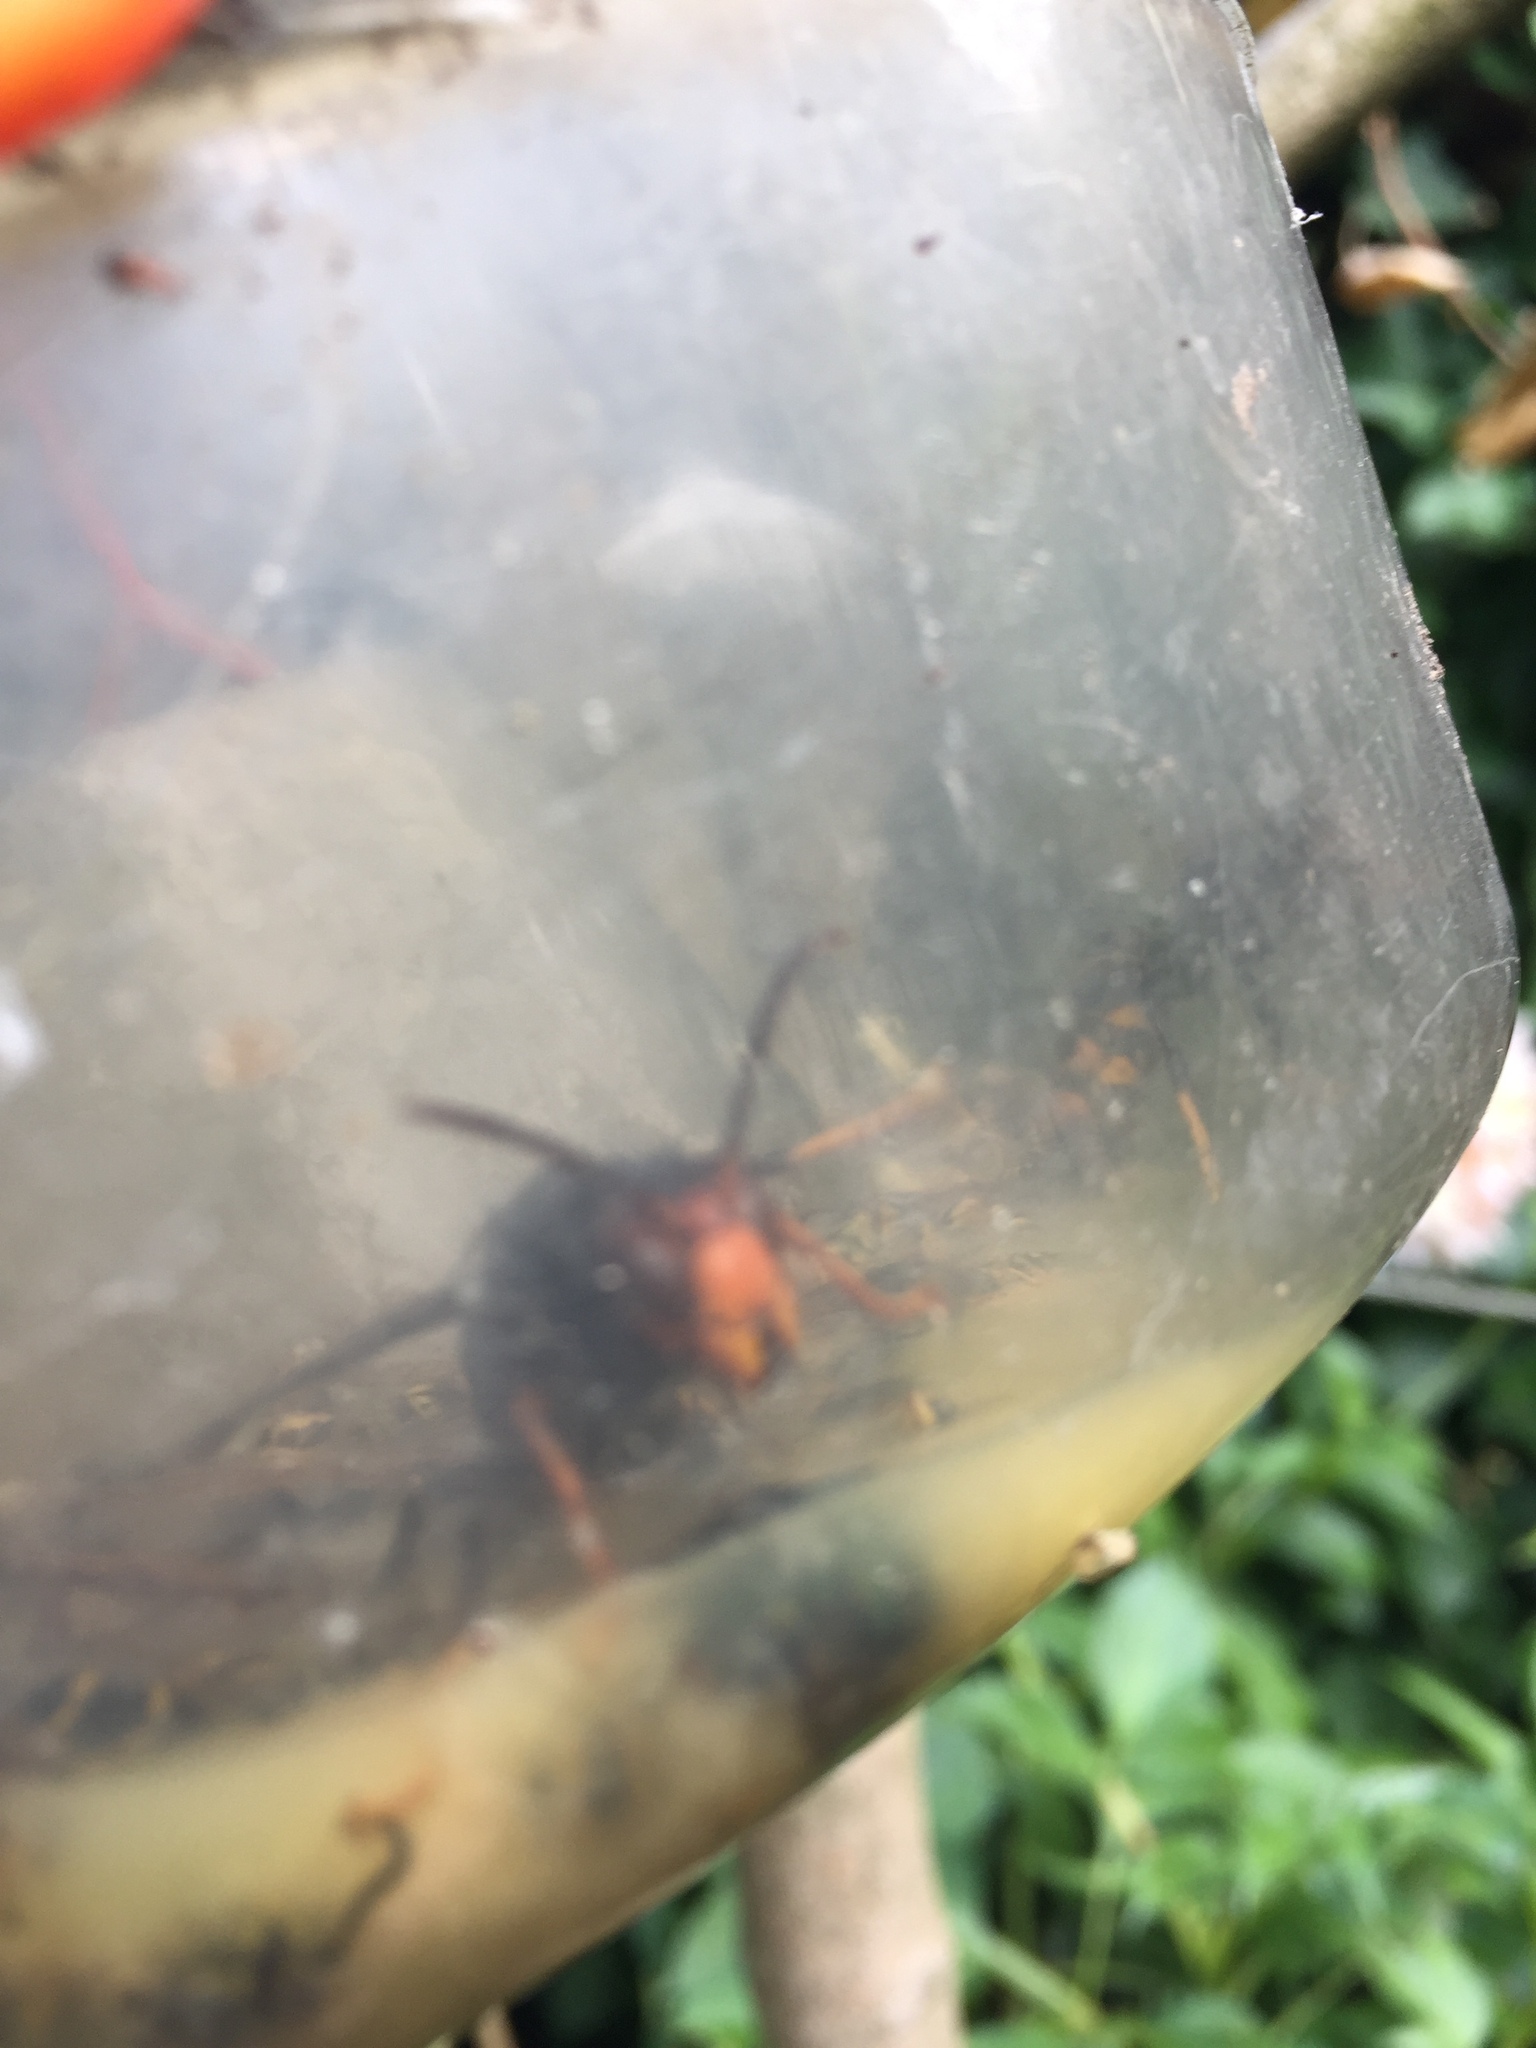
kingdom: Animalia
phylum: Arthropoda
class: Insecta
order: Hymenoptera
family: Vespidae
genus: Vespa
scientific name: Vespa velutina
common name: Asian hornet
